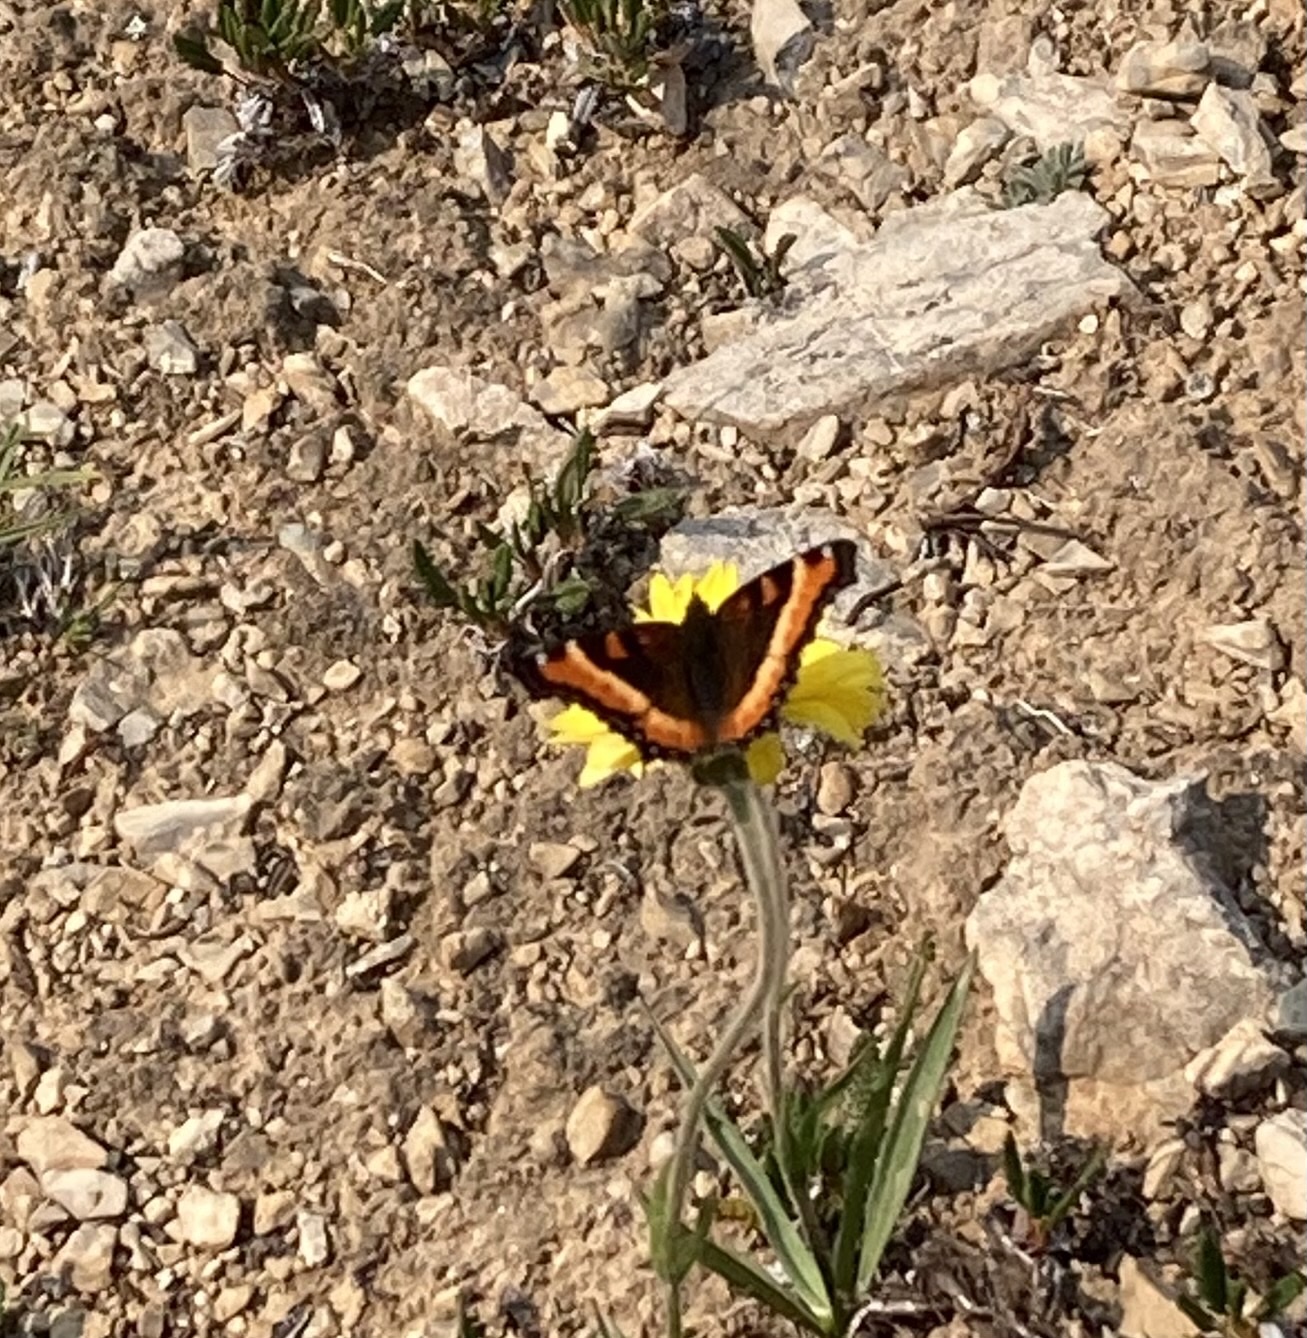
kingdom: Animalia
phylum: Arthropoda
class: Insecta
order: Lepidoptera
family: Nymphalidae
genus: Aglais
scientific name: Aglais milberti
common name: Milbert's tortoiseshell
